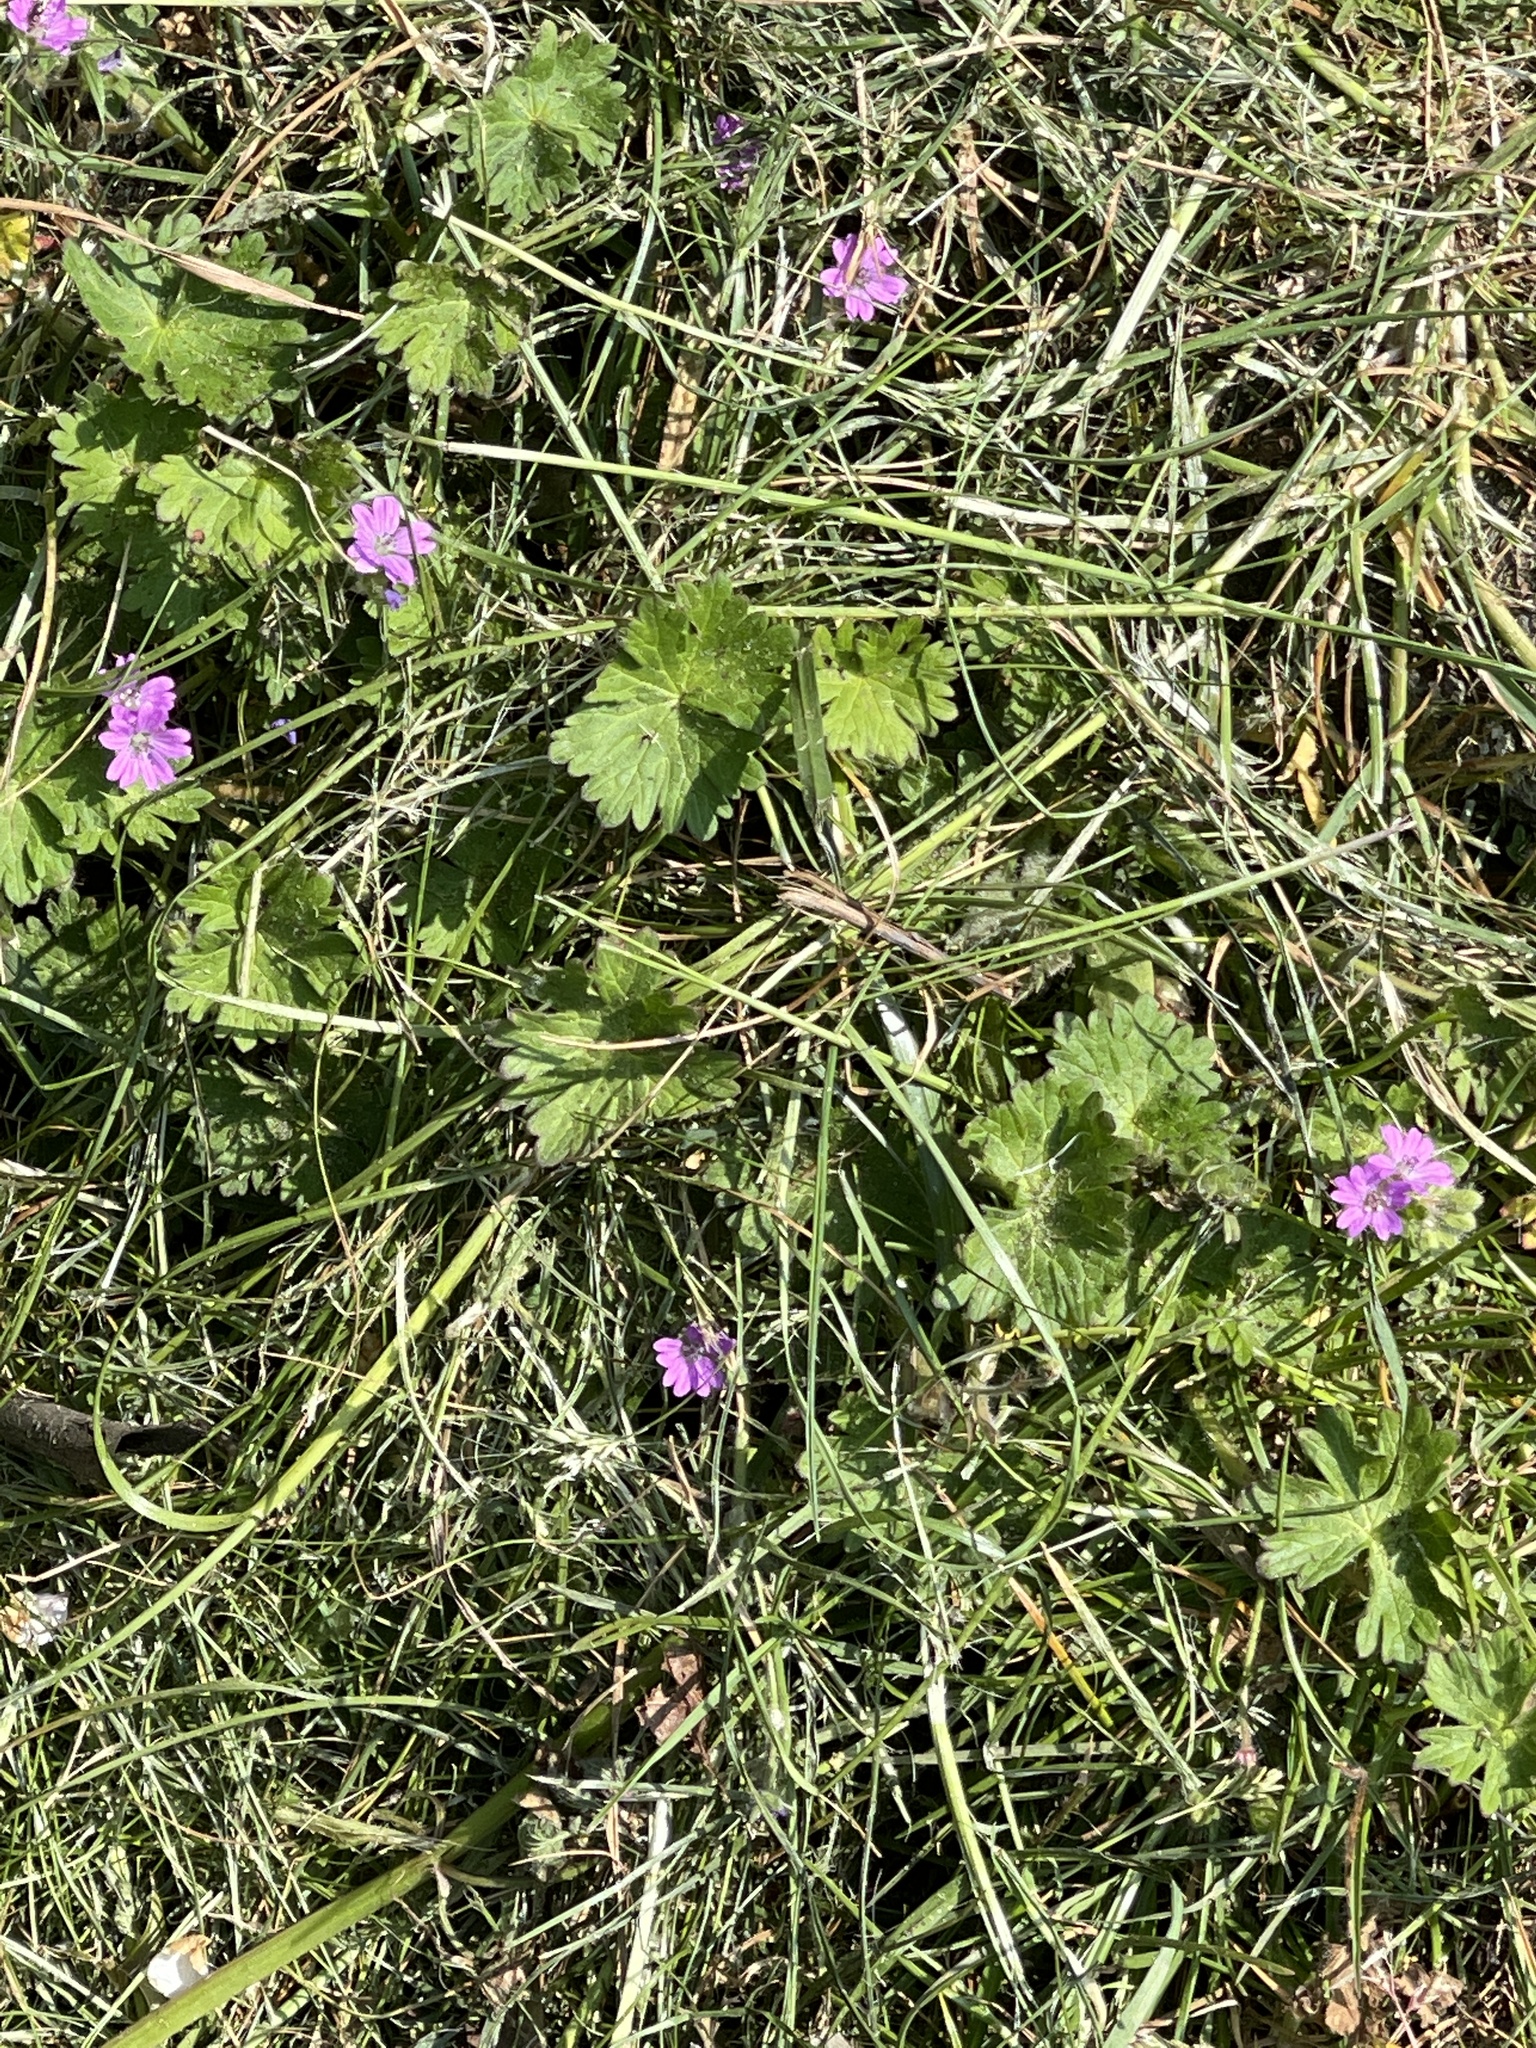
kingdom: Plantae
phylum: Tracheophyta
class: Magnoliopsida
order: Geraniales
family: Geraniaceae
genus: Geranium
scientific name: Geranium molle
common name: Dove's-foot crane's-bill
